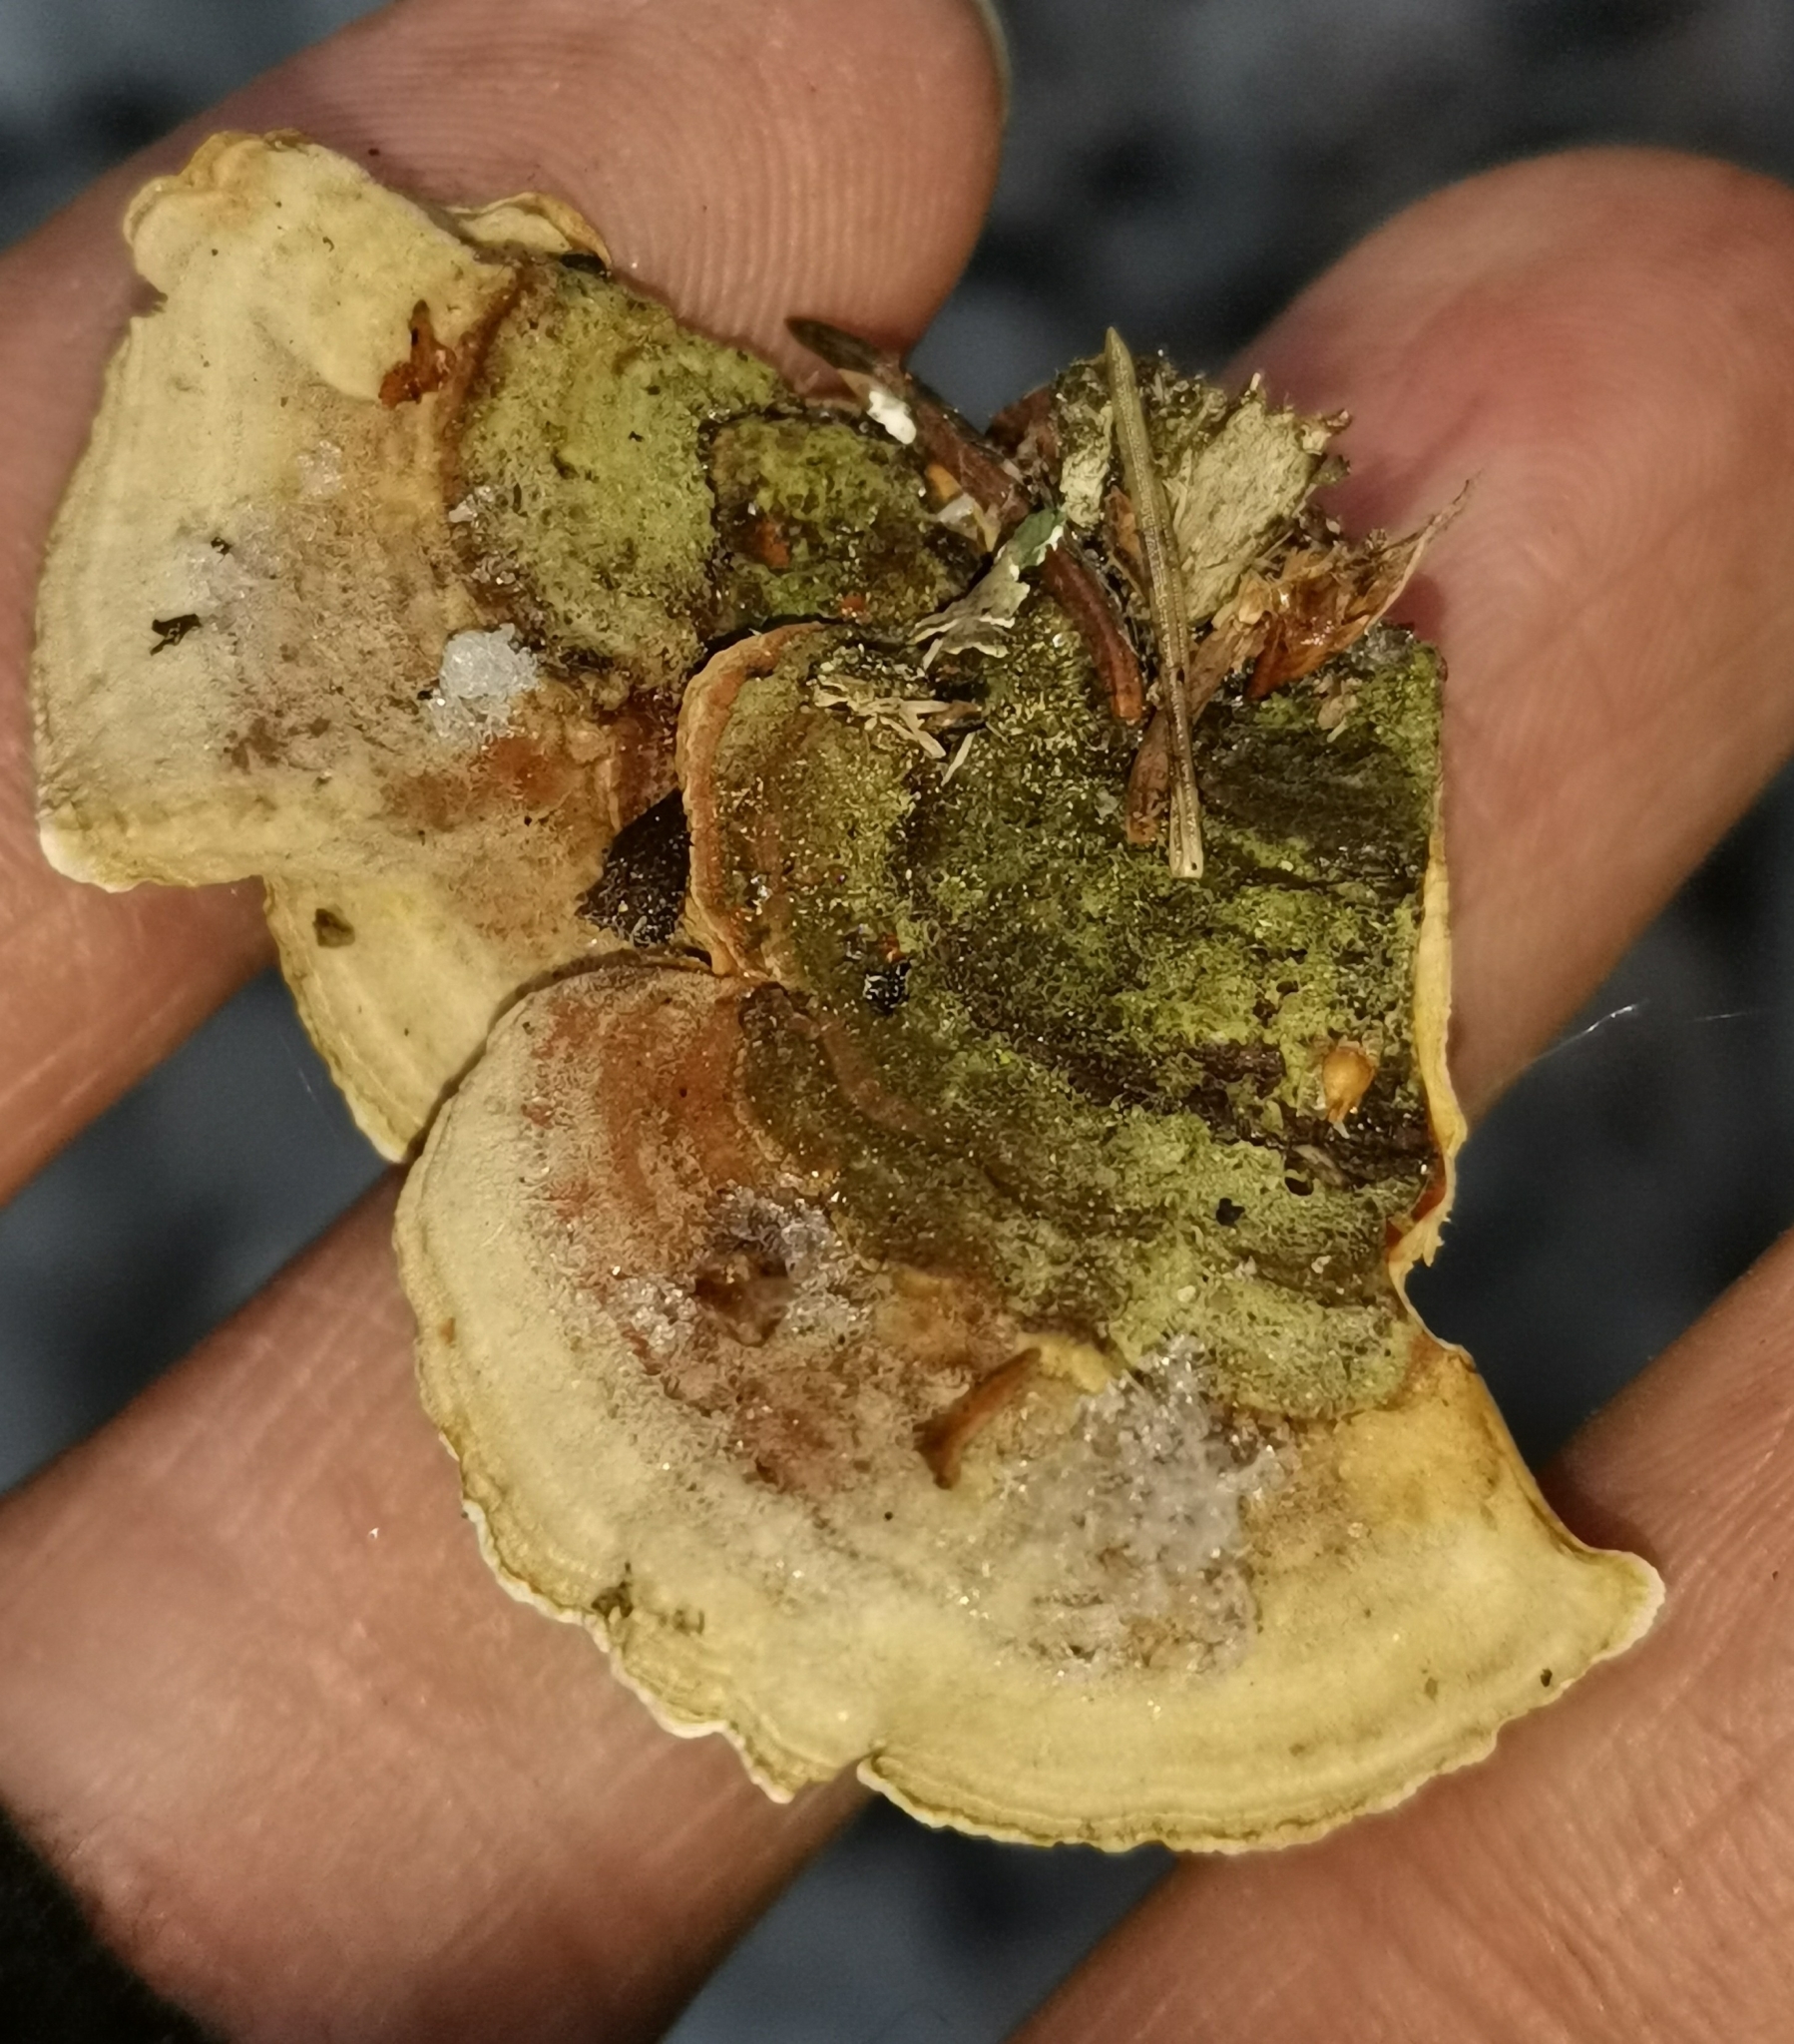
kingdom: Fungi
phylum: Basidiomycota
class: Agaricomycetes
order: Russulales
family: Stereaceae
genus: Stereum
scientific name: Stereum subtomentosum
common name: Yellowing curtain crust
